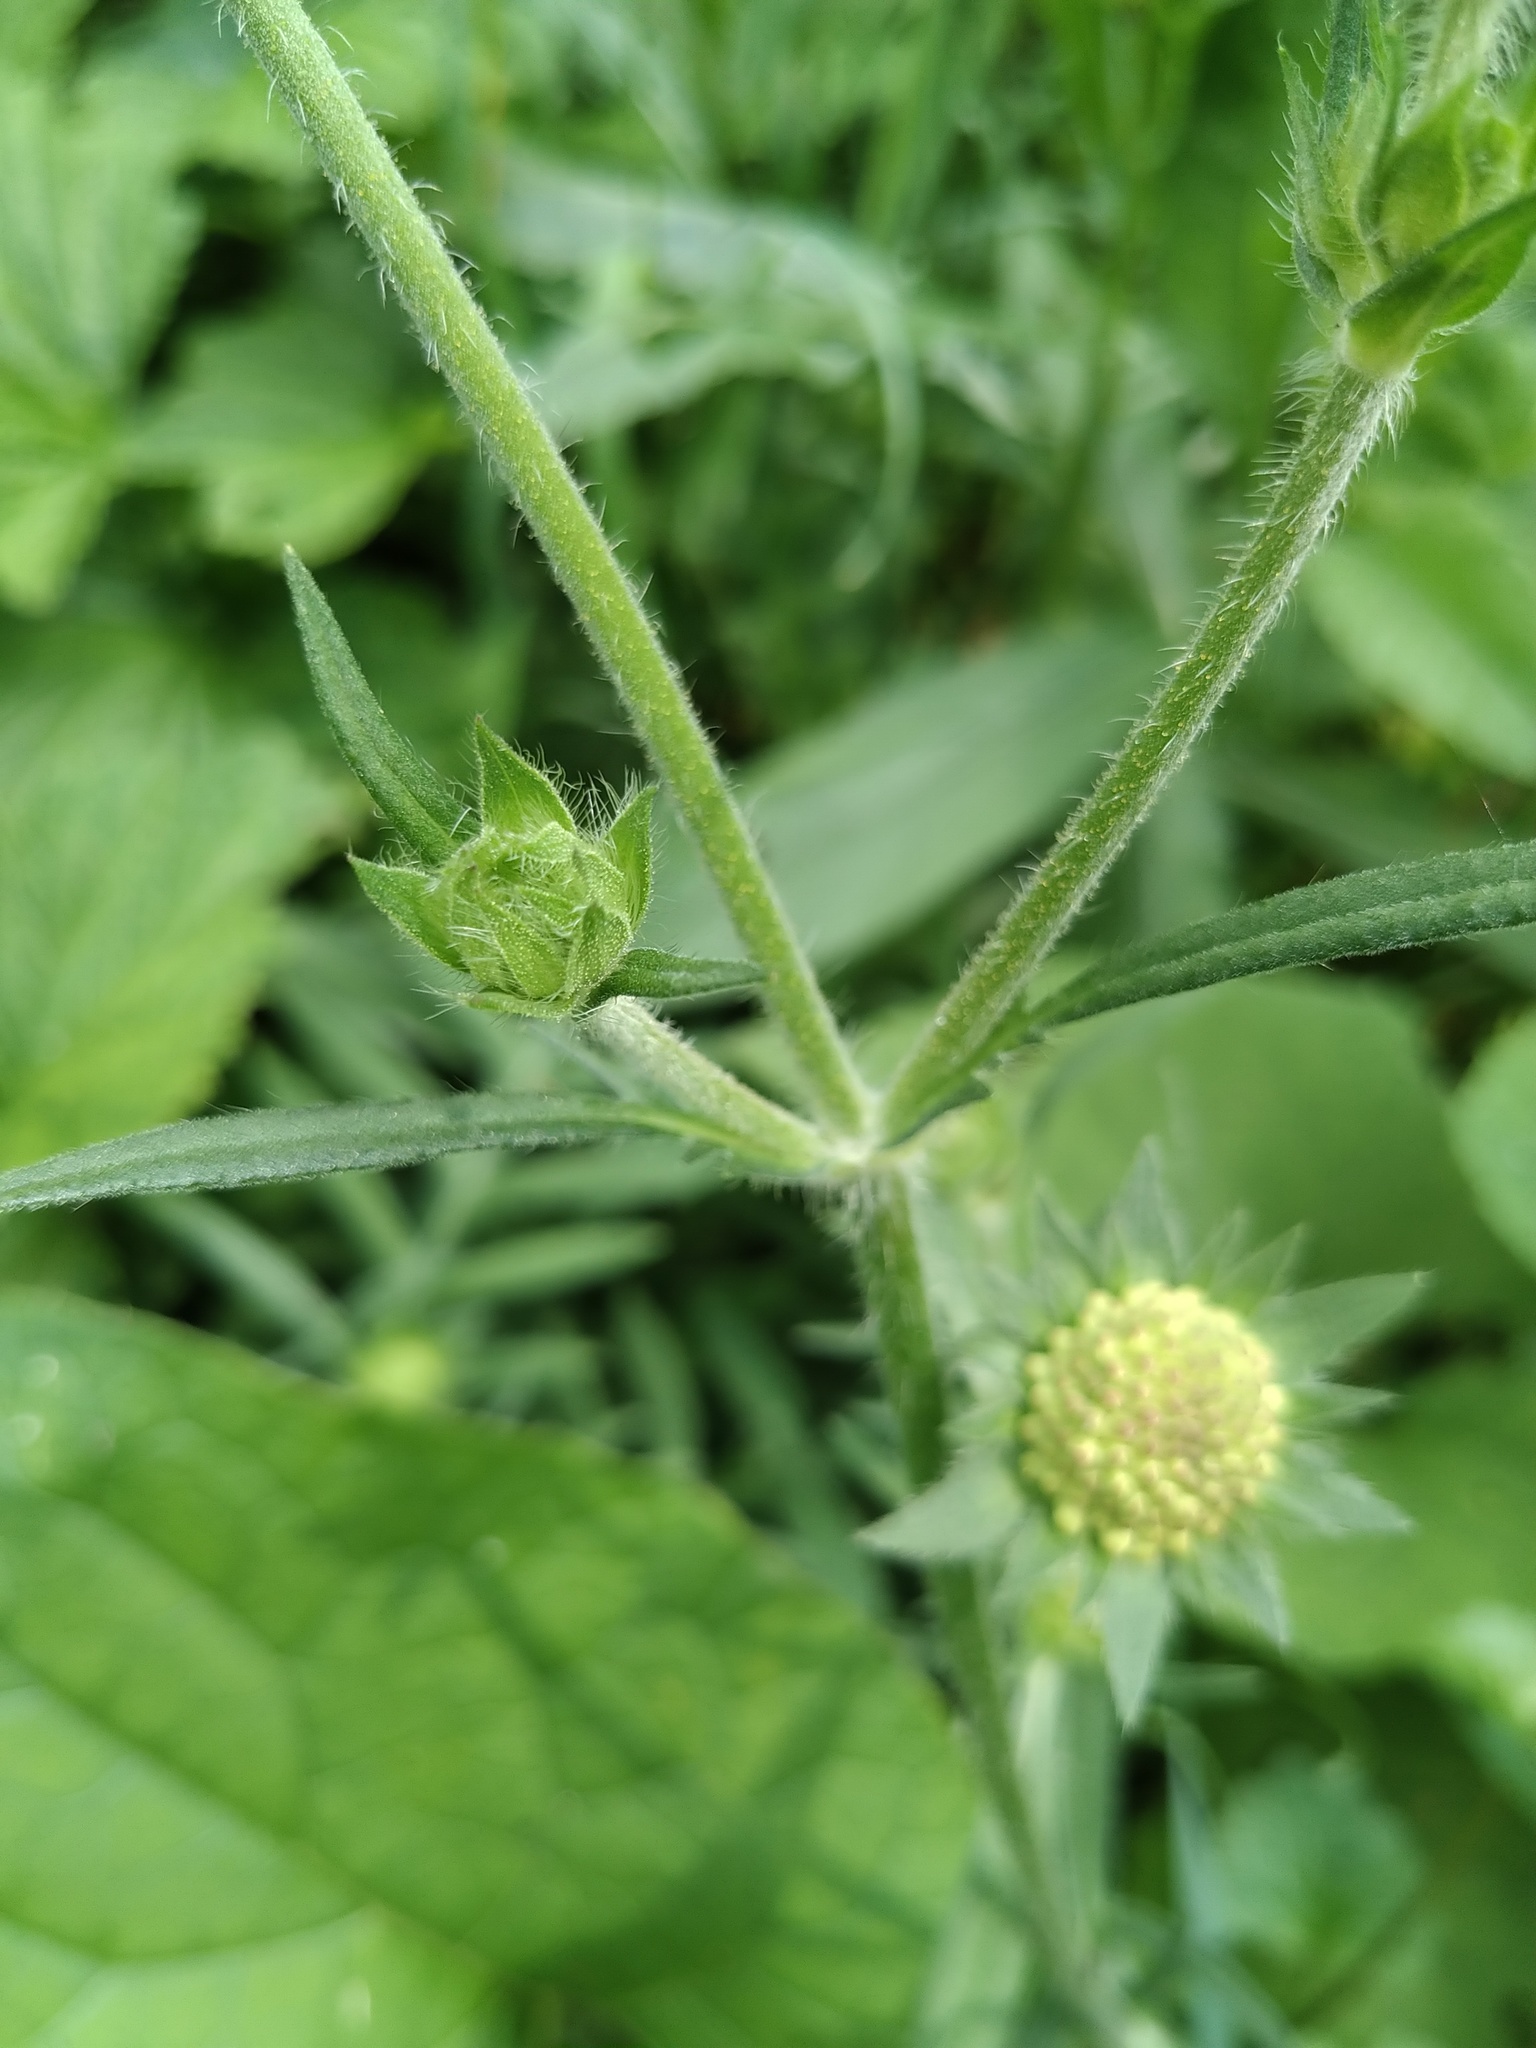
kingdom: Plantae
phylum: Tracheophyta
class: Magnoliopsida
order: Dipsacales
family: Caprifoliaceae
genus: Knautia
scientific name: Knautia arvensis
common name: Field scabiosa
